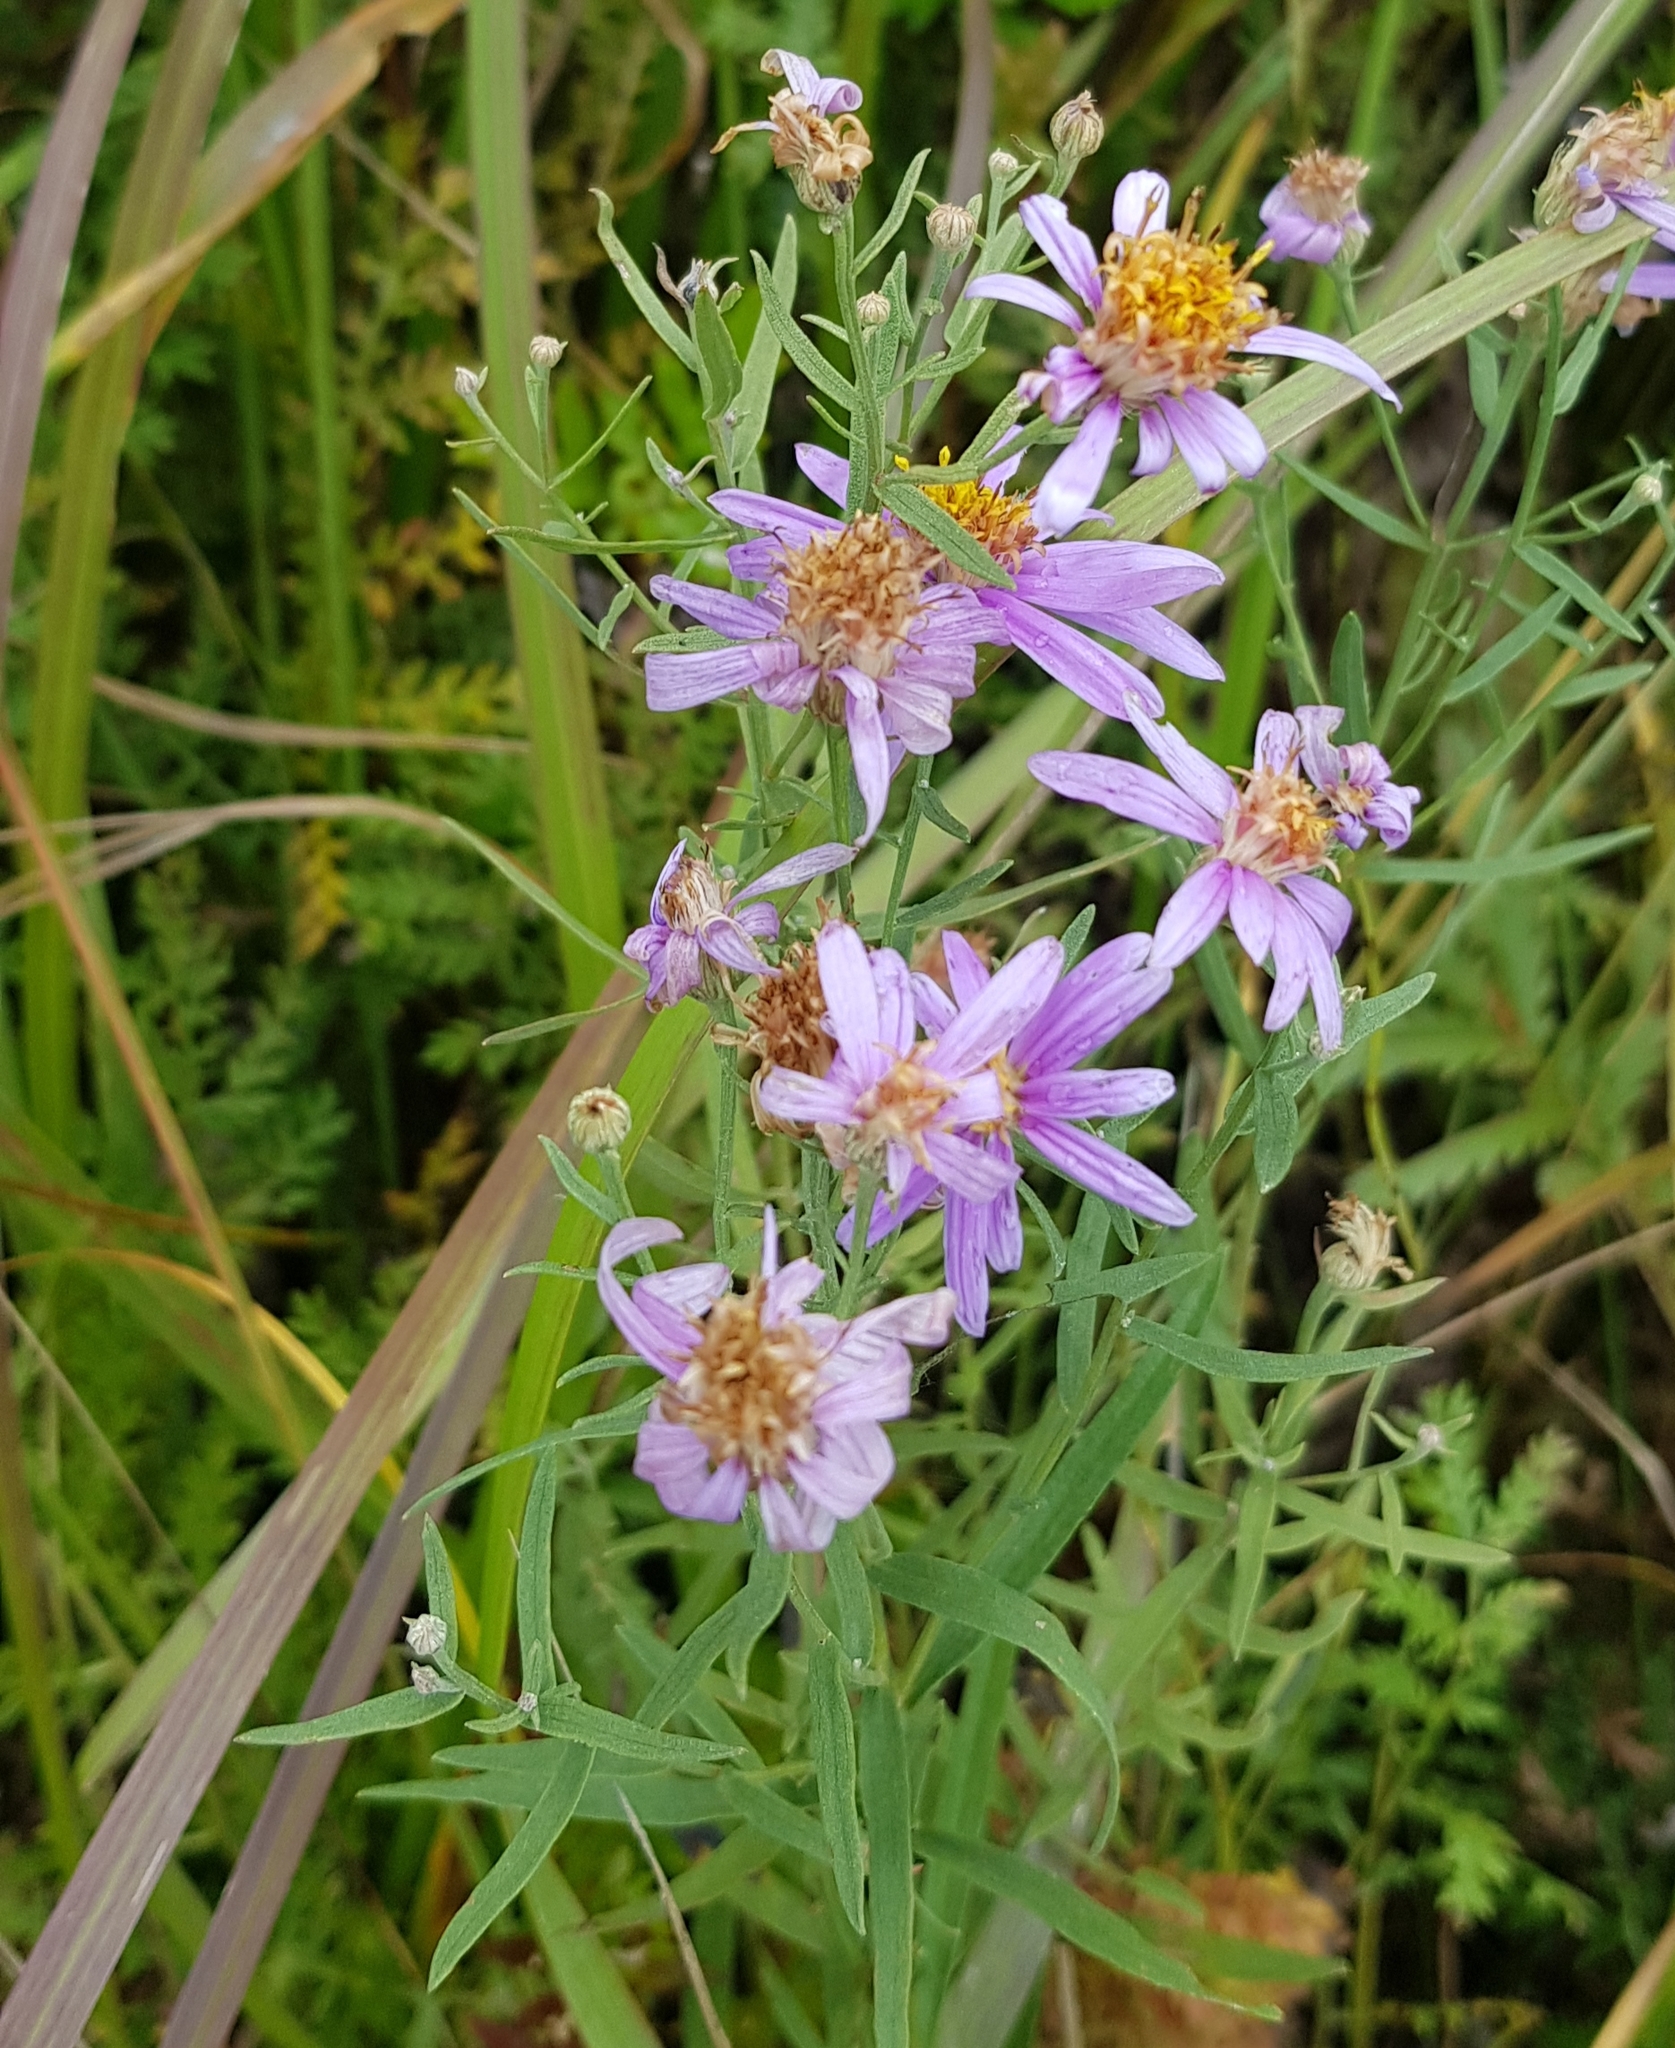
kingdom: Plantae
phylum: Tracheophyta
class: Magnoliopsida
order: Asterales
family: Asteraceae
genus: Galatella
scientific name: Galatella dahurica
